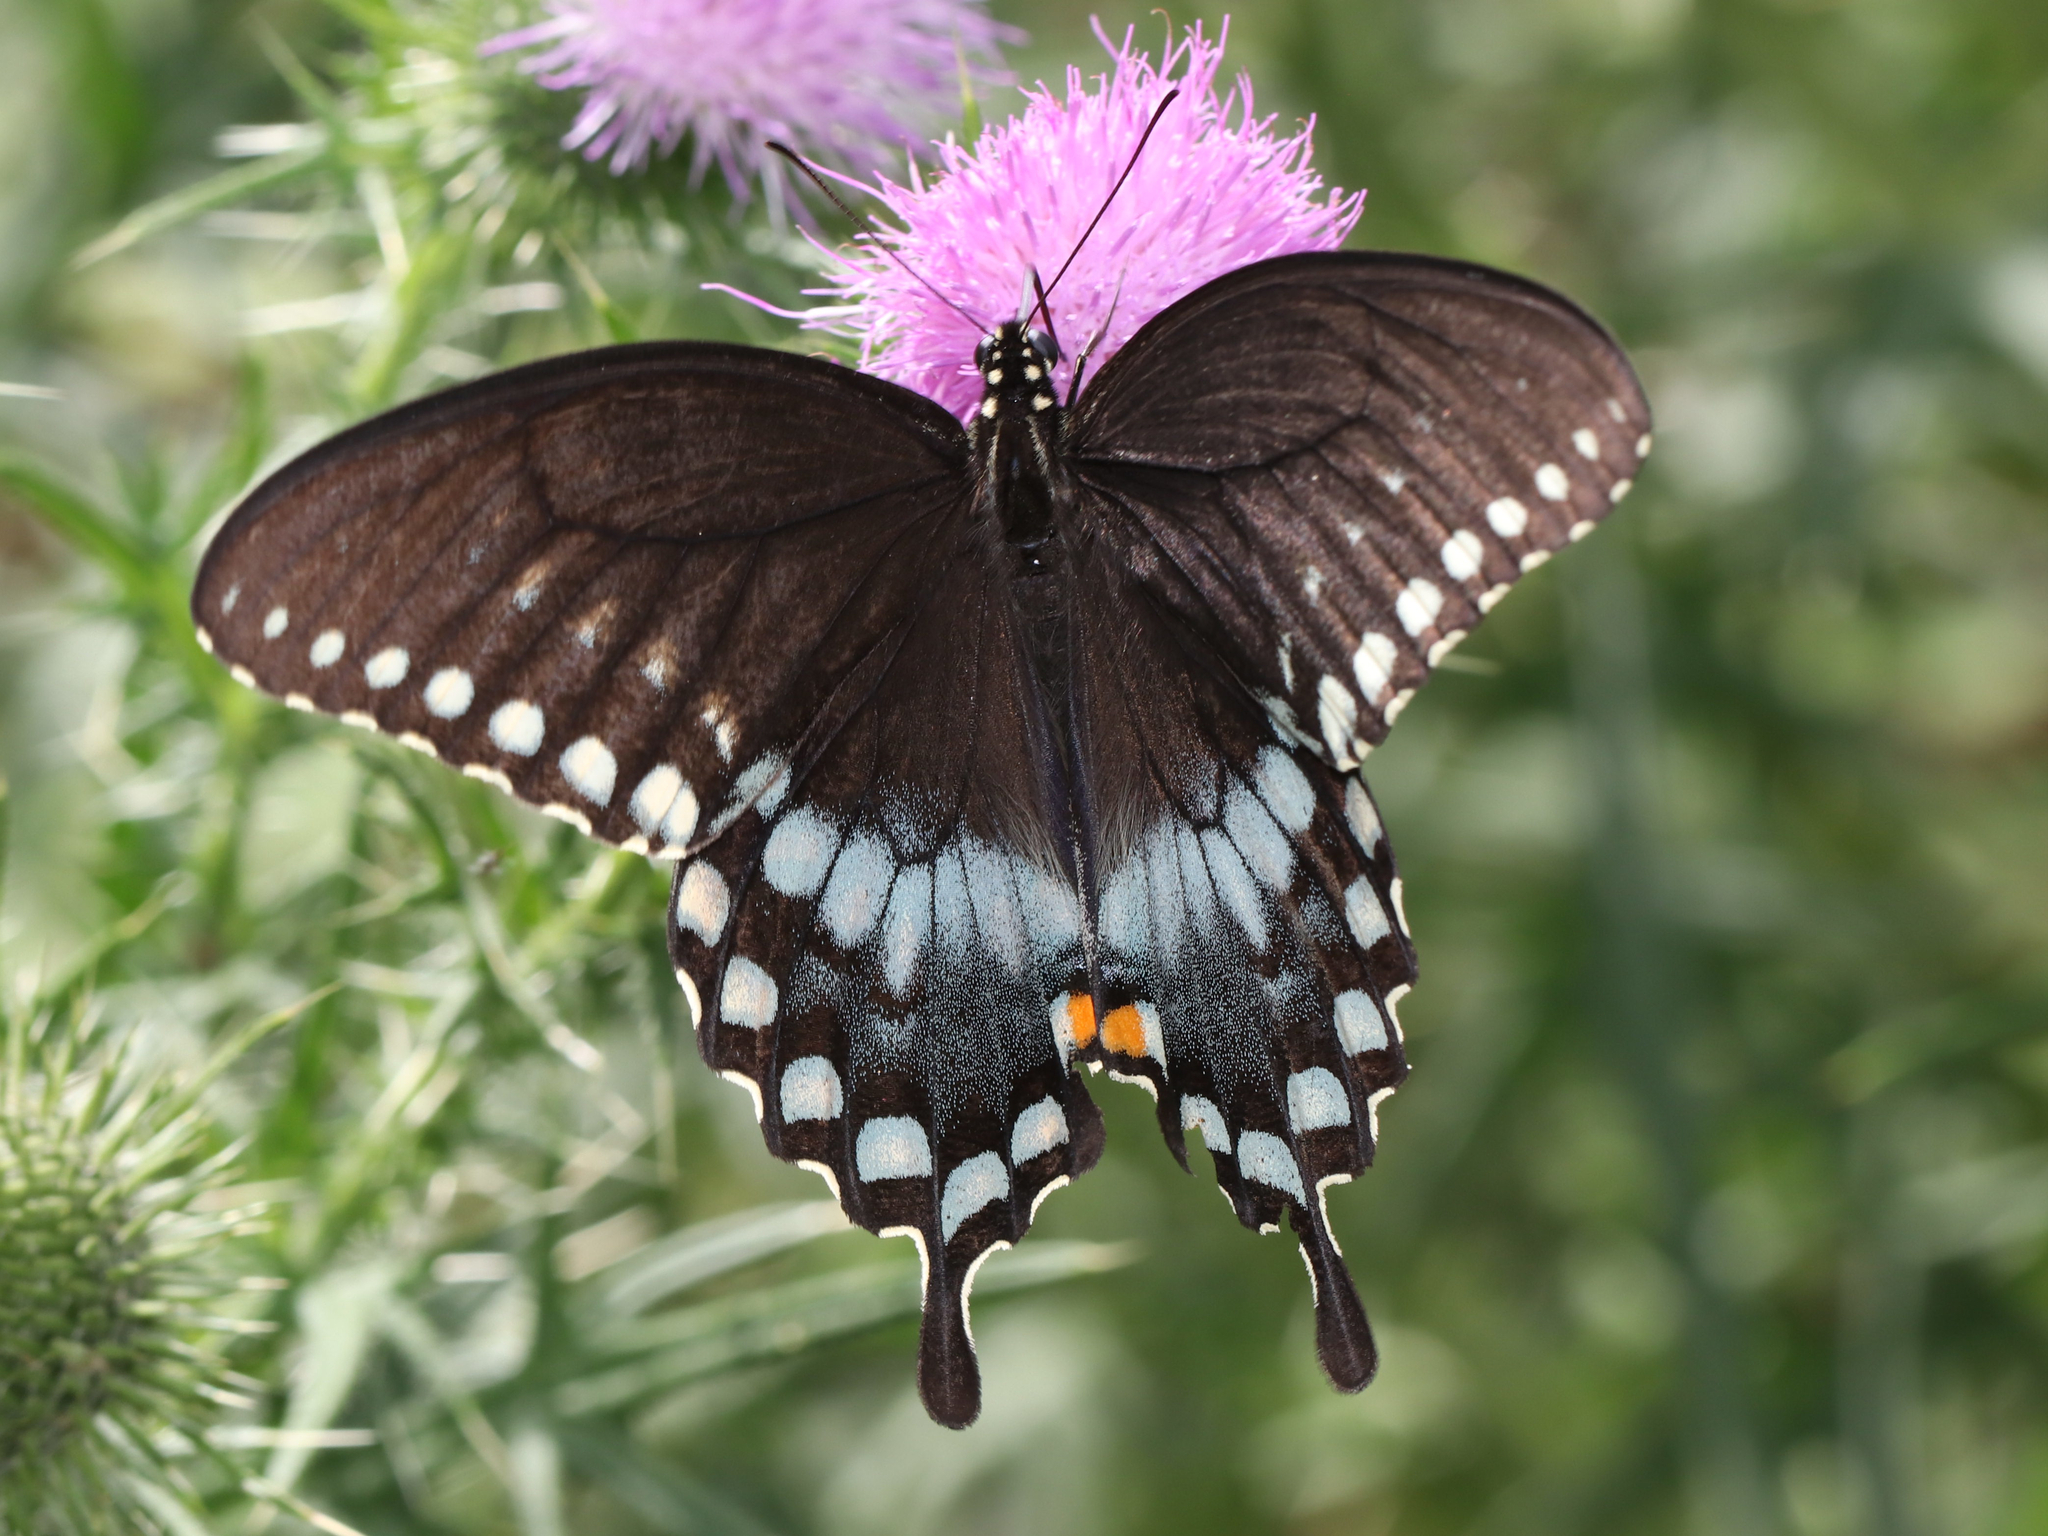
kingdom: Animalia
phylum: Arthropoda
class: Insecta
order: Lepidoptera
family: Papilionidae
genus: Papilio
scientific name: Papilio troilus
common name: Spicebush swallowtail
